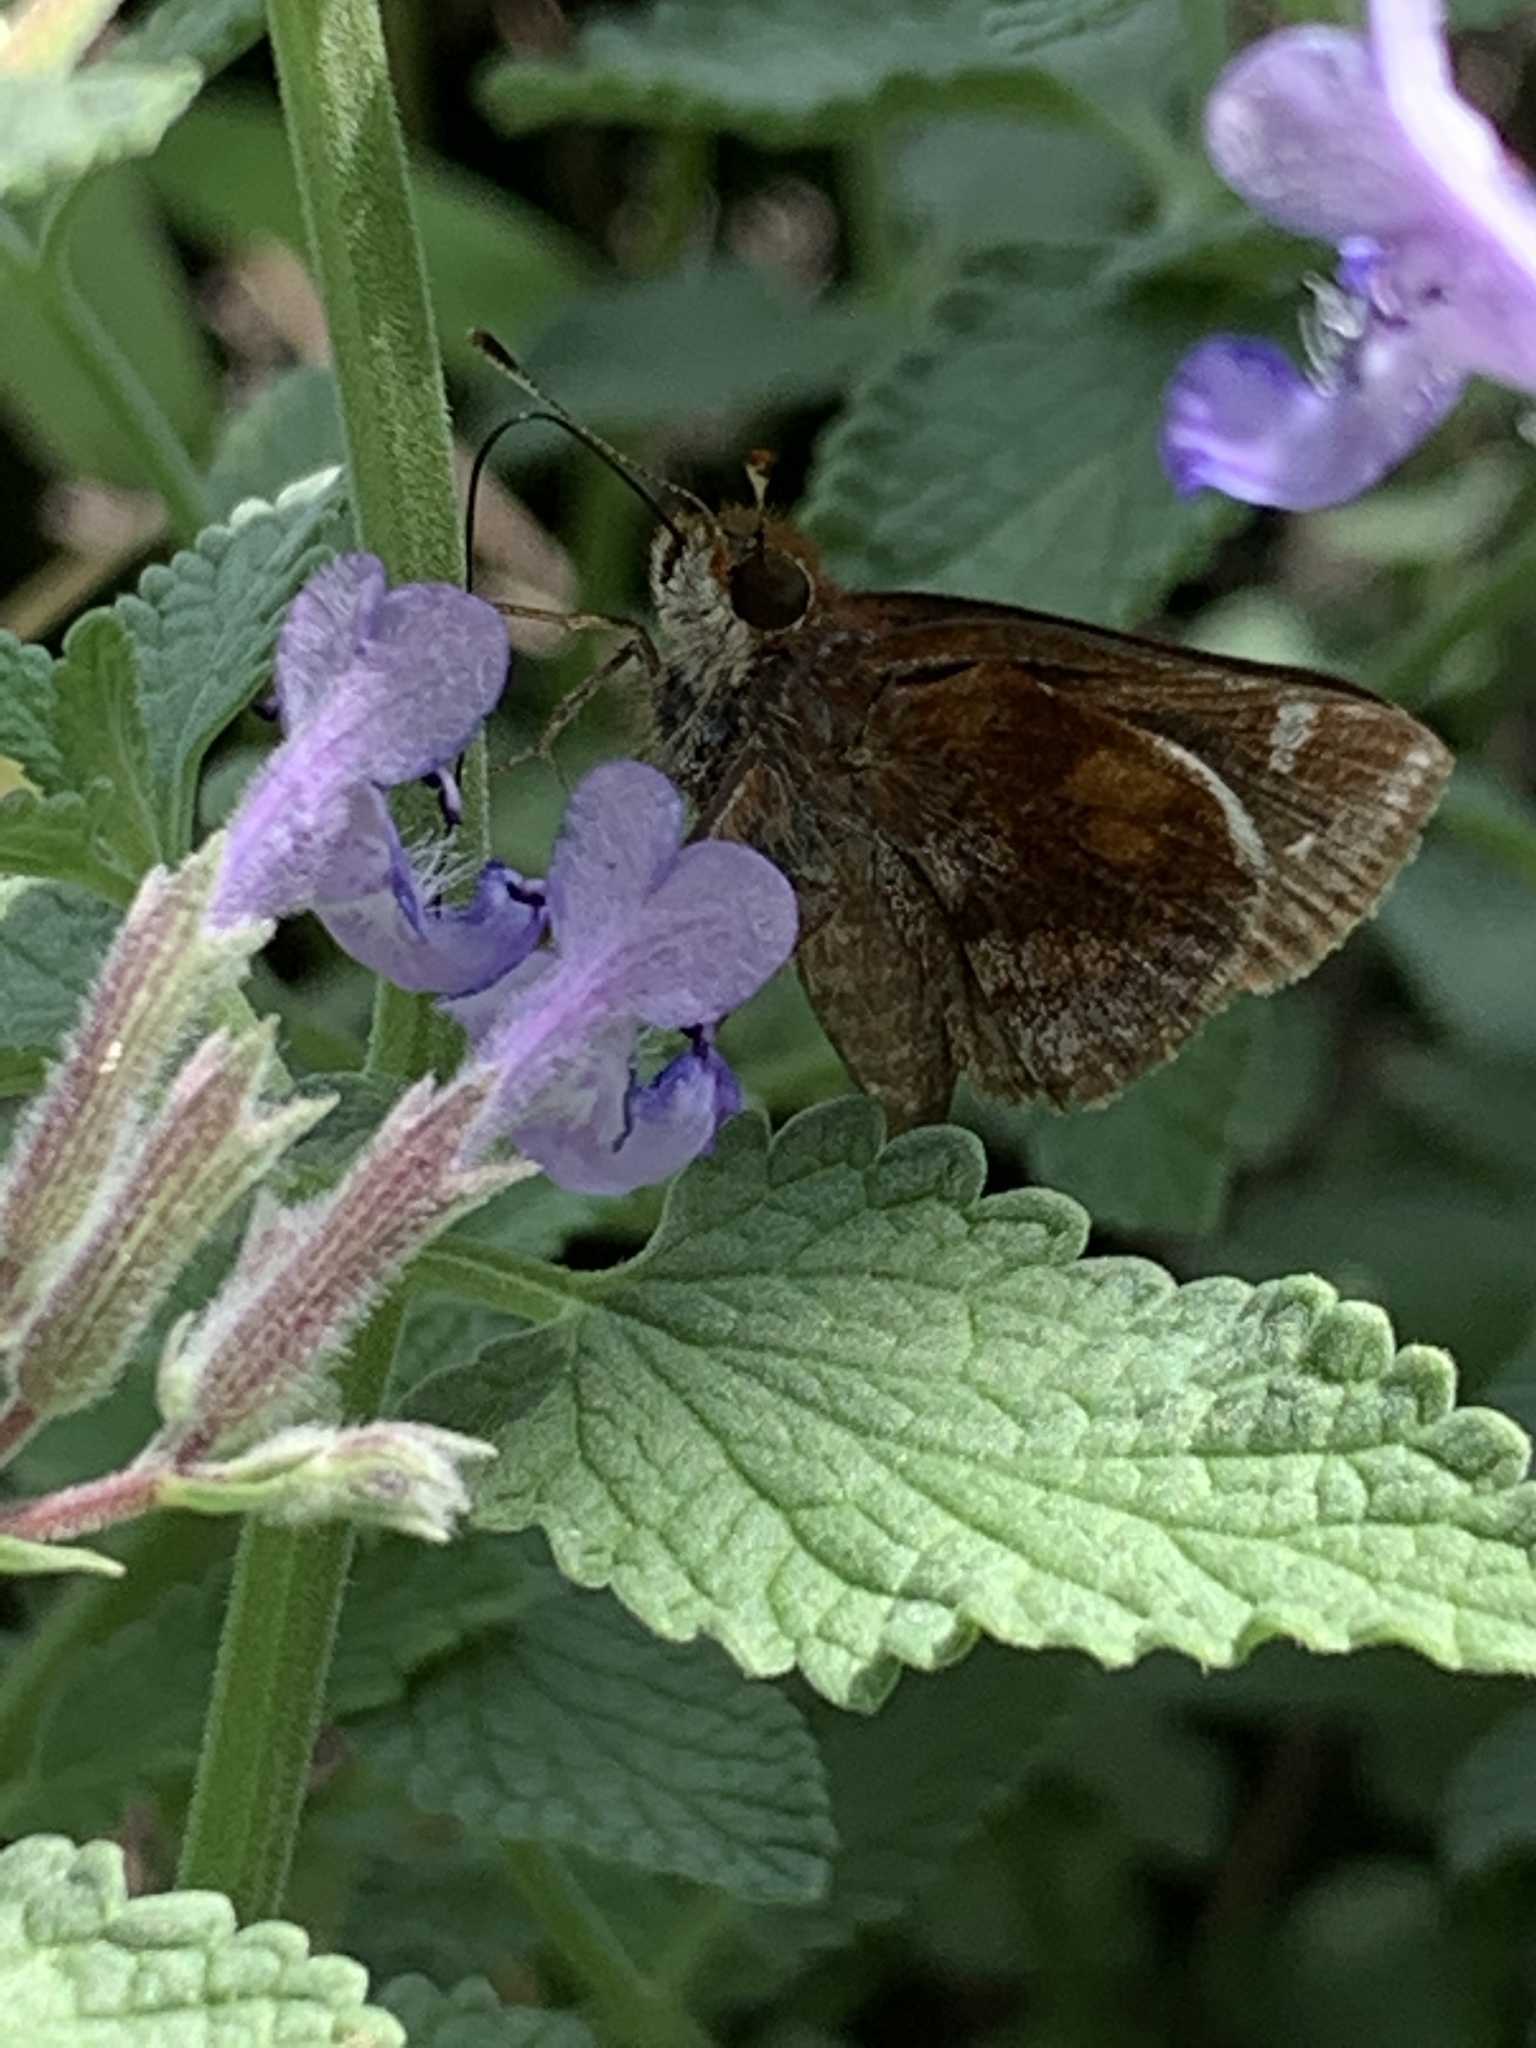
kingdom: Animalia
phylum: Arthropoda
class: Insecta
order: Lepidoptera
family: Hesperiidae
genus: Lon
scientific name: Lon zabulon
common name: Zabulon skipper
